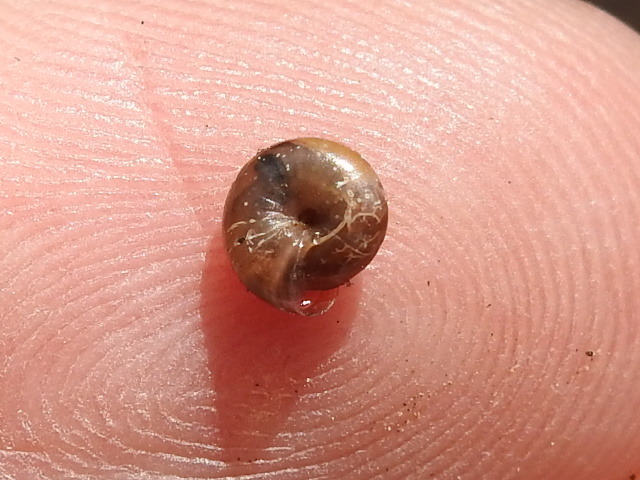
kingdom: Animalia
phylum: Mollusca
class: Gastropoda
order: Stylommatophora
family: Gastrodontidae
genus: Zonitoides
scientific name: Zonitoides arboreus
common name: Quick gloss
